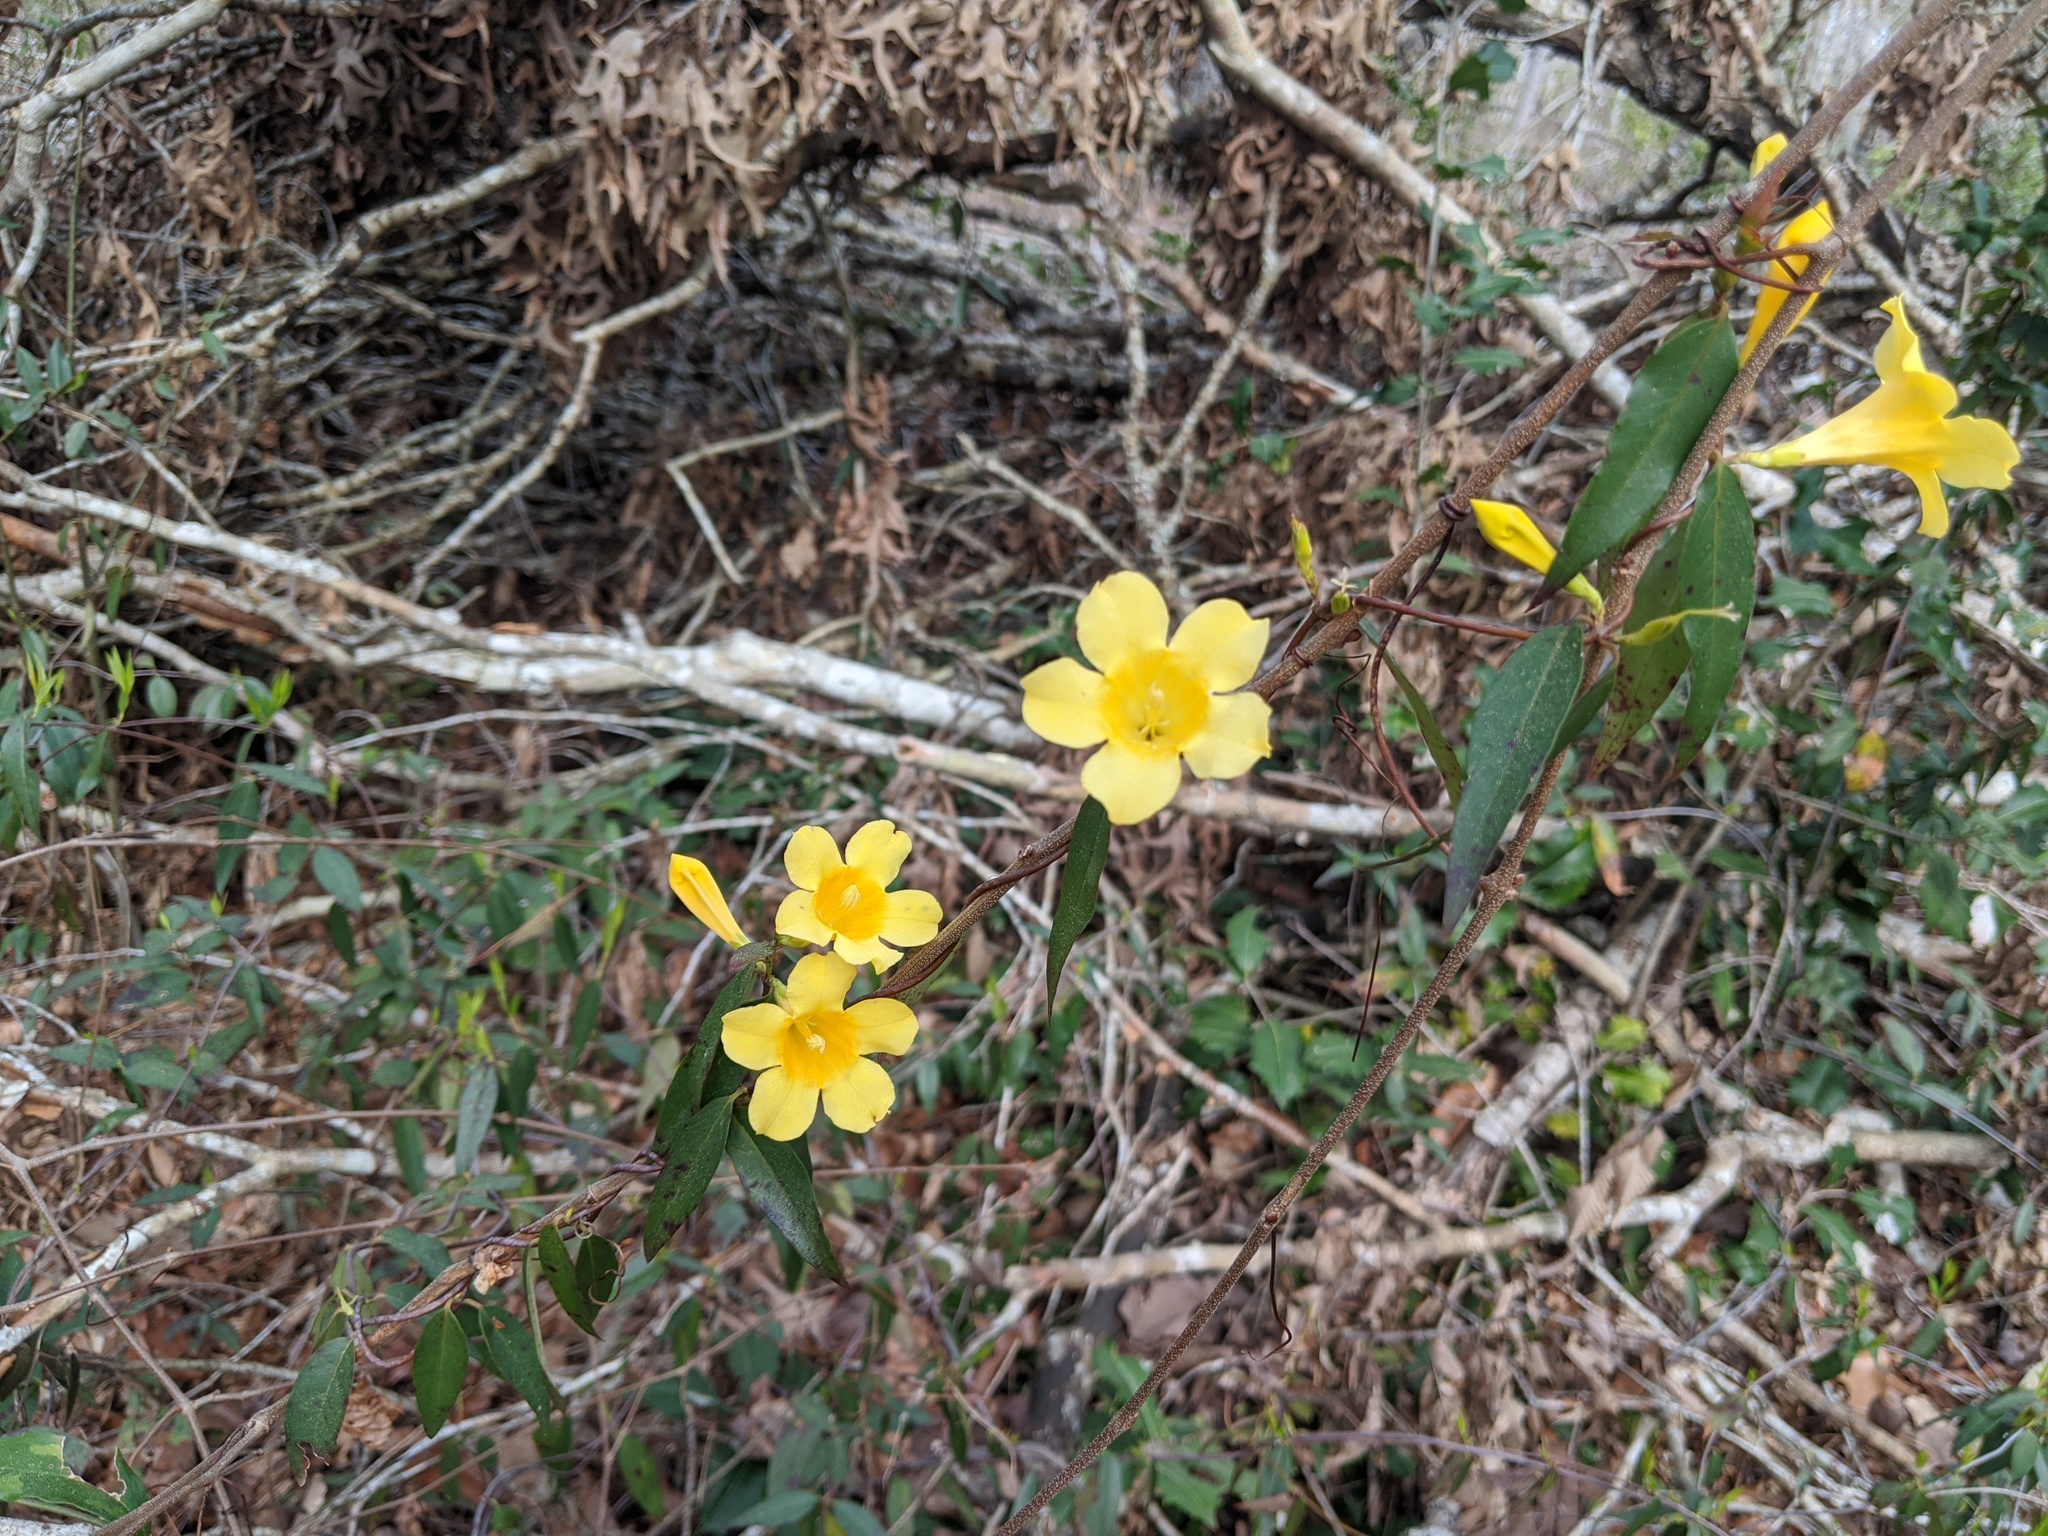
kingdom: Plantae
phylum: Tracheophyta
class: Magnoliopsida
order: Gentianales
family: Gelsemiaceae
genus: Gelsemium
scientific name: Gelsemium sempervirens
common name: Carolina-jasmine
